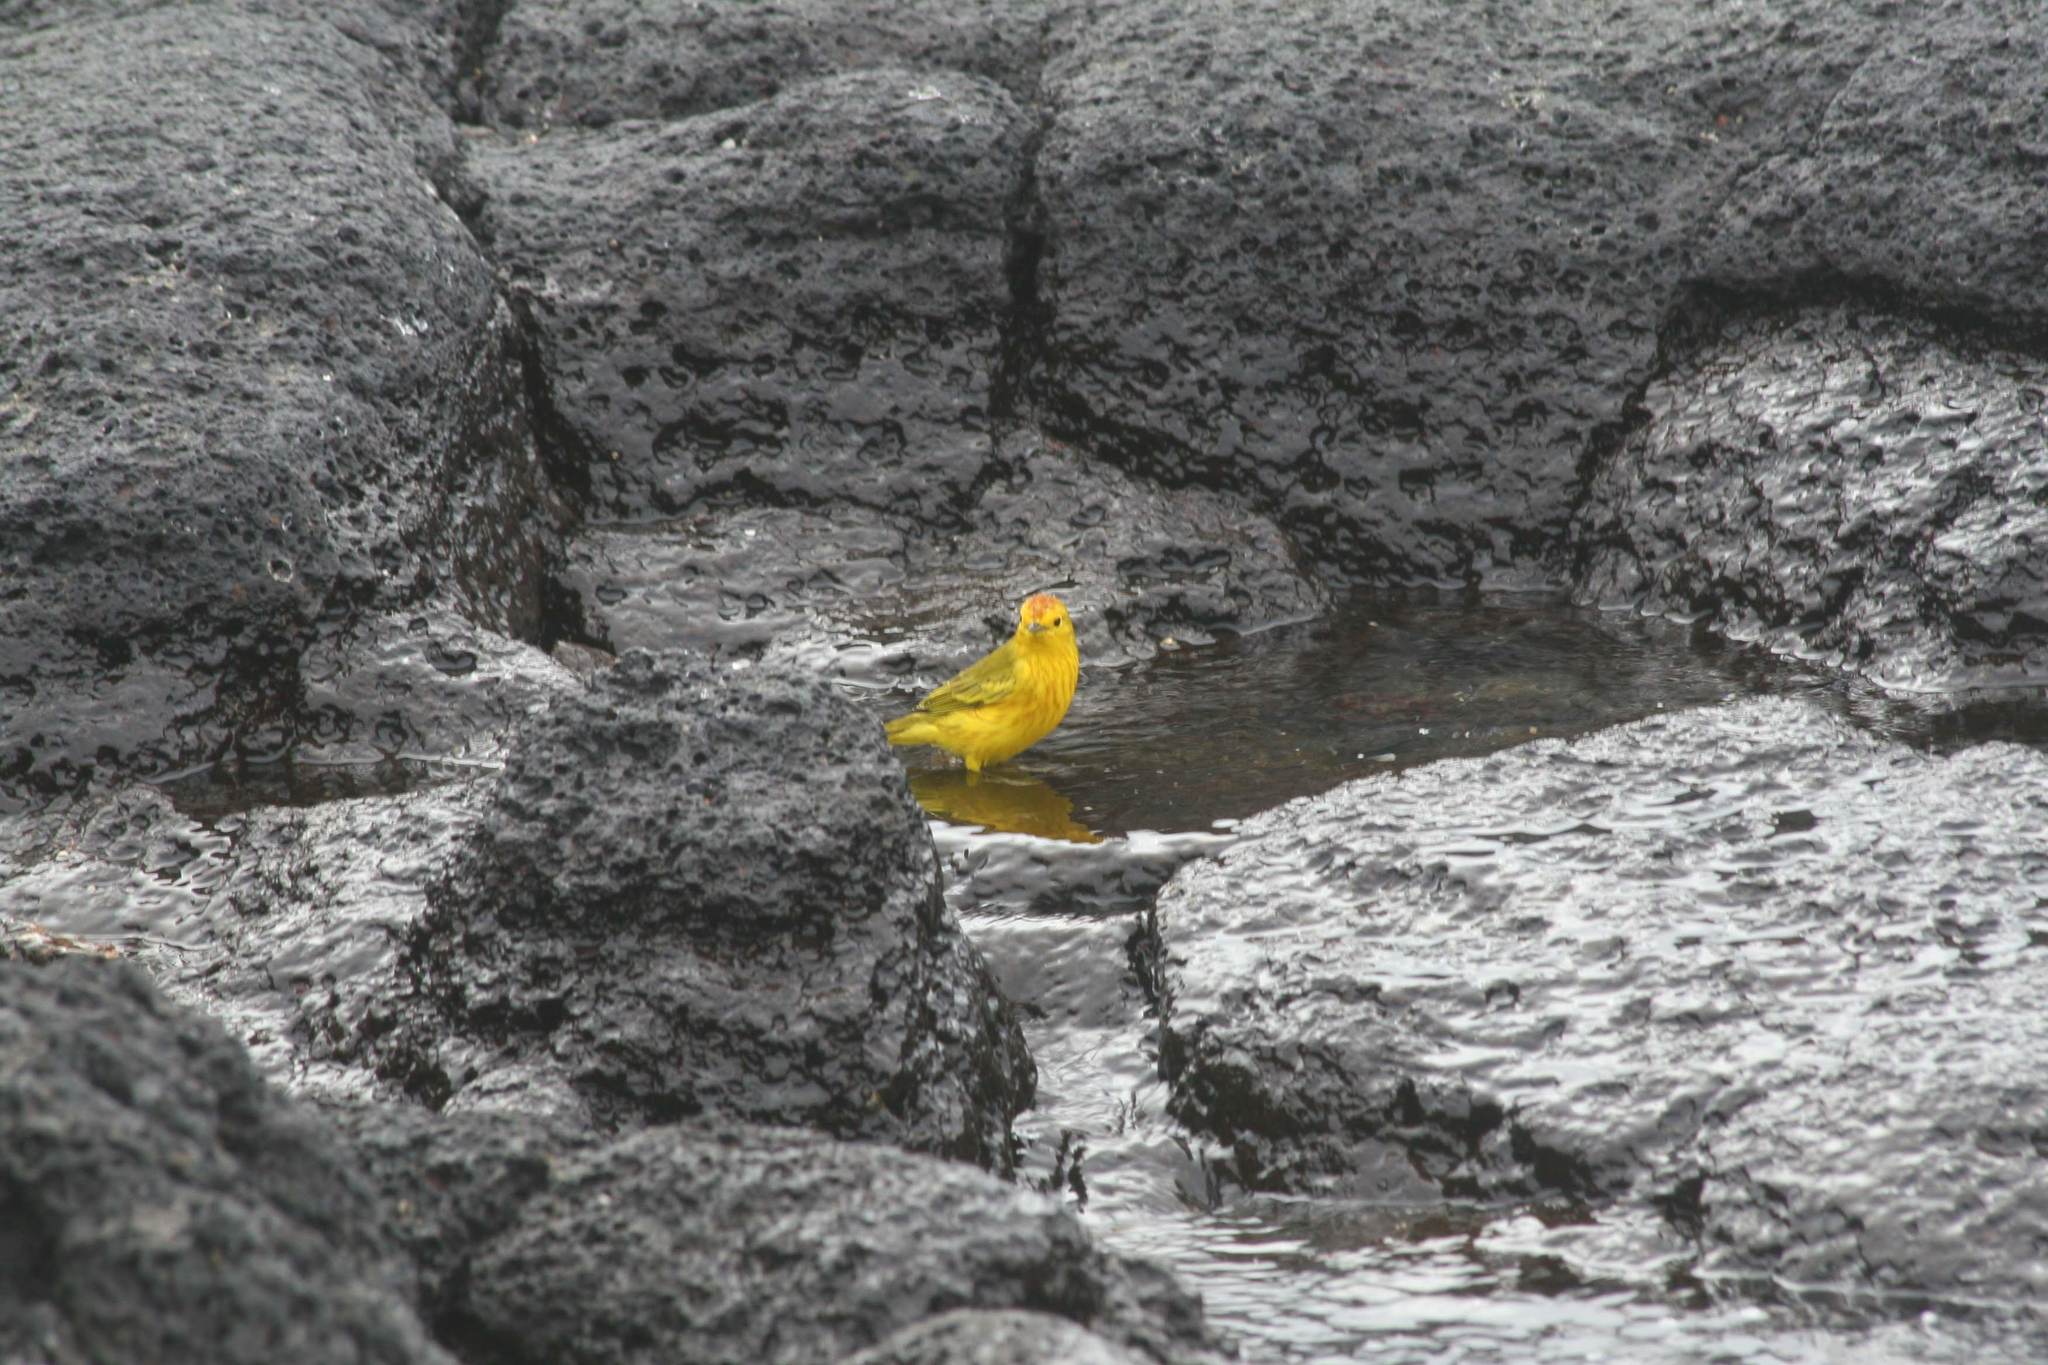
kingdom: Animalia
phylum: Chordata
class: Aves
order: Passeriformes
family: Parulidae
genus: Setophaga
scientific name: Setophaga petechia
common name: Yellow warbler
